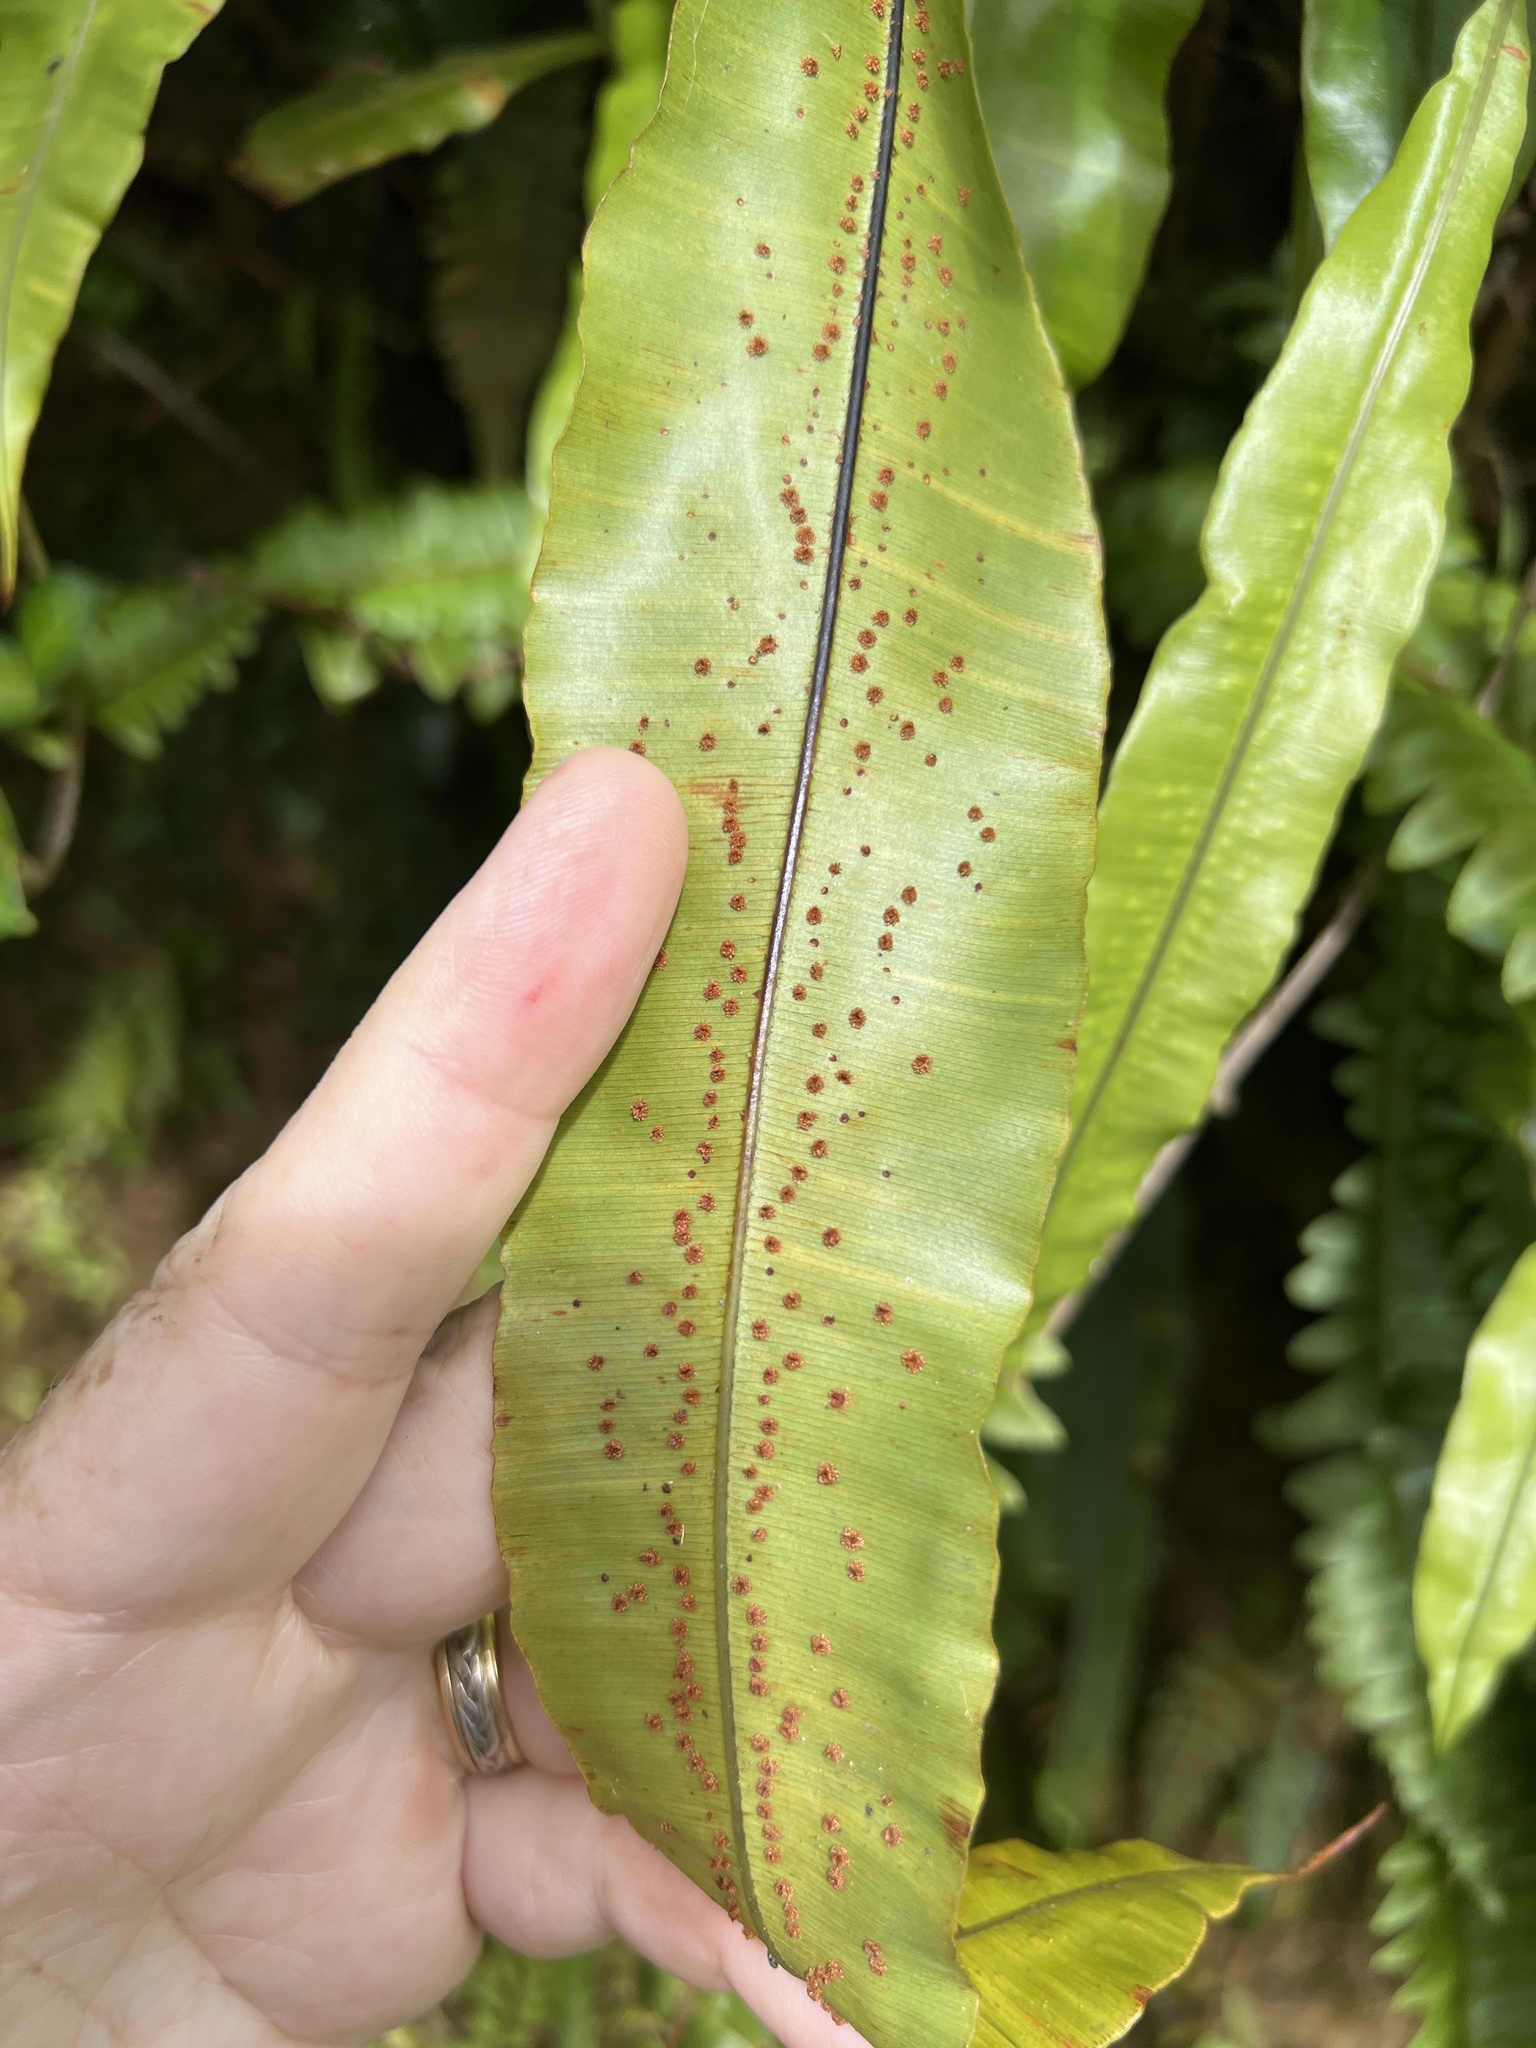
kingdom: Plantae
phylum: Tracheophyta
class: Polypodiopsida
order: Polypodiales
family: Oleandraceae
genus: Oleandra
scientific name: Oleandra articulata
